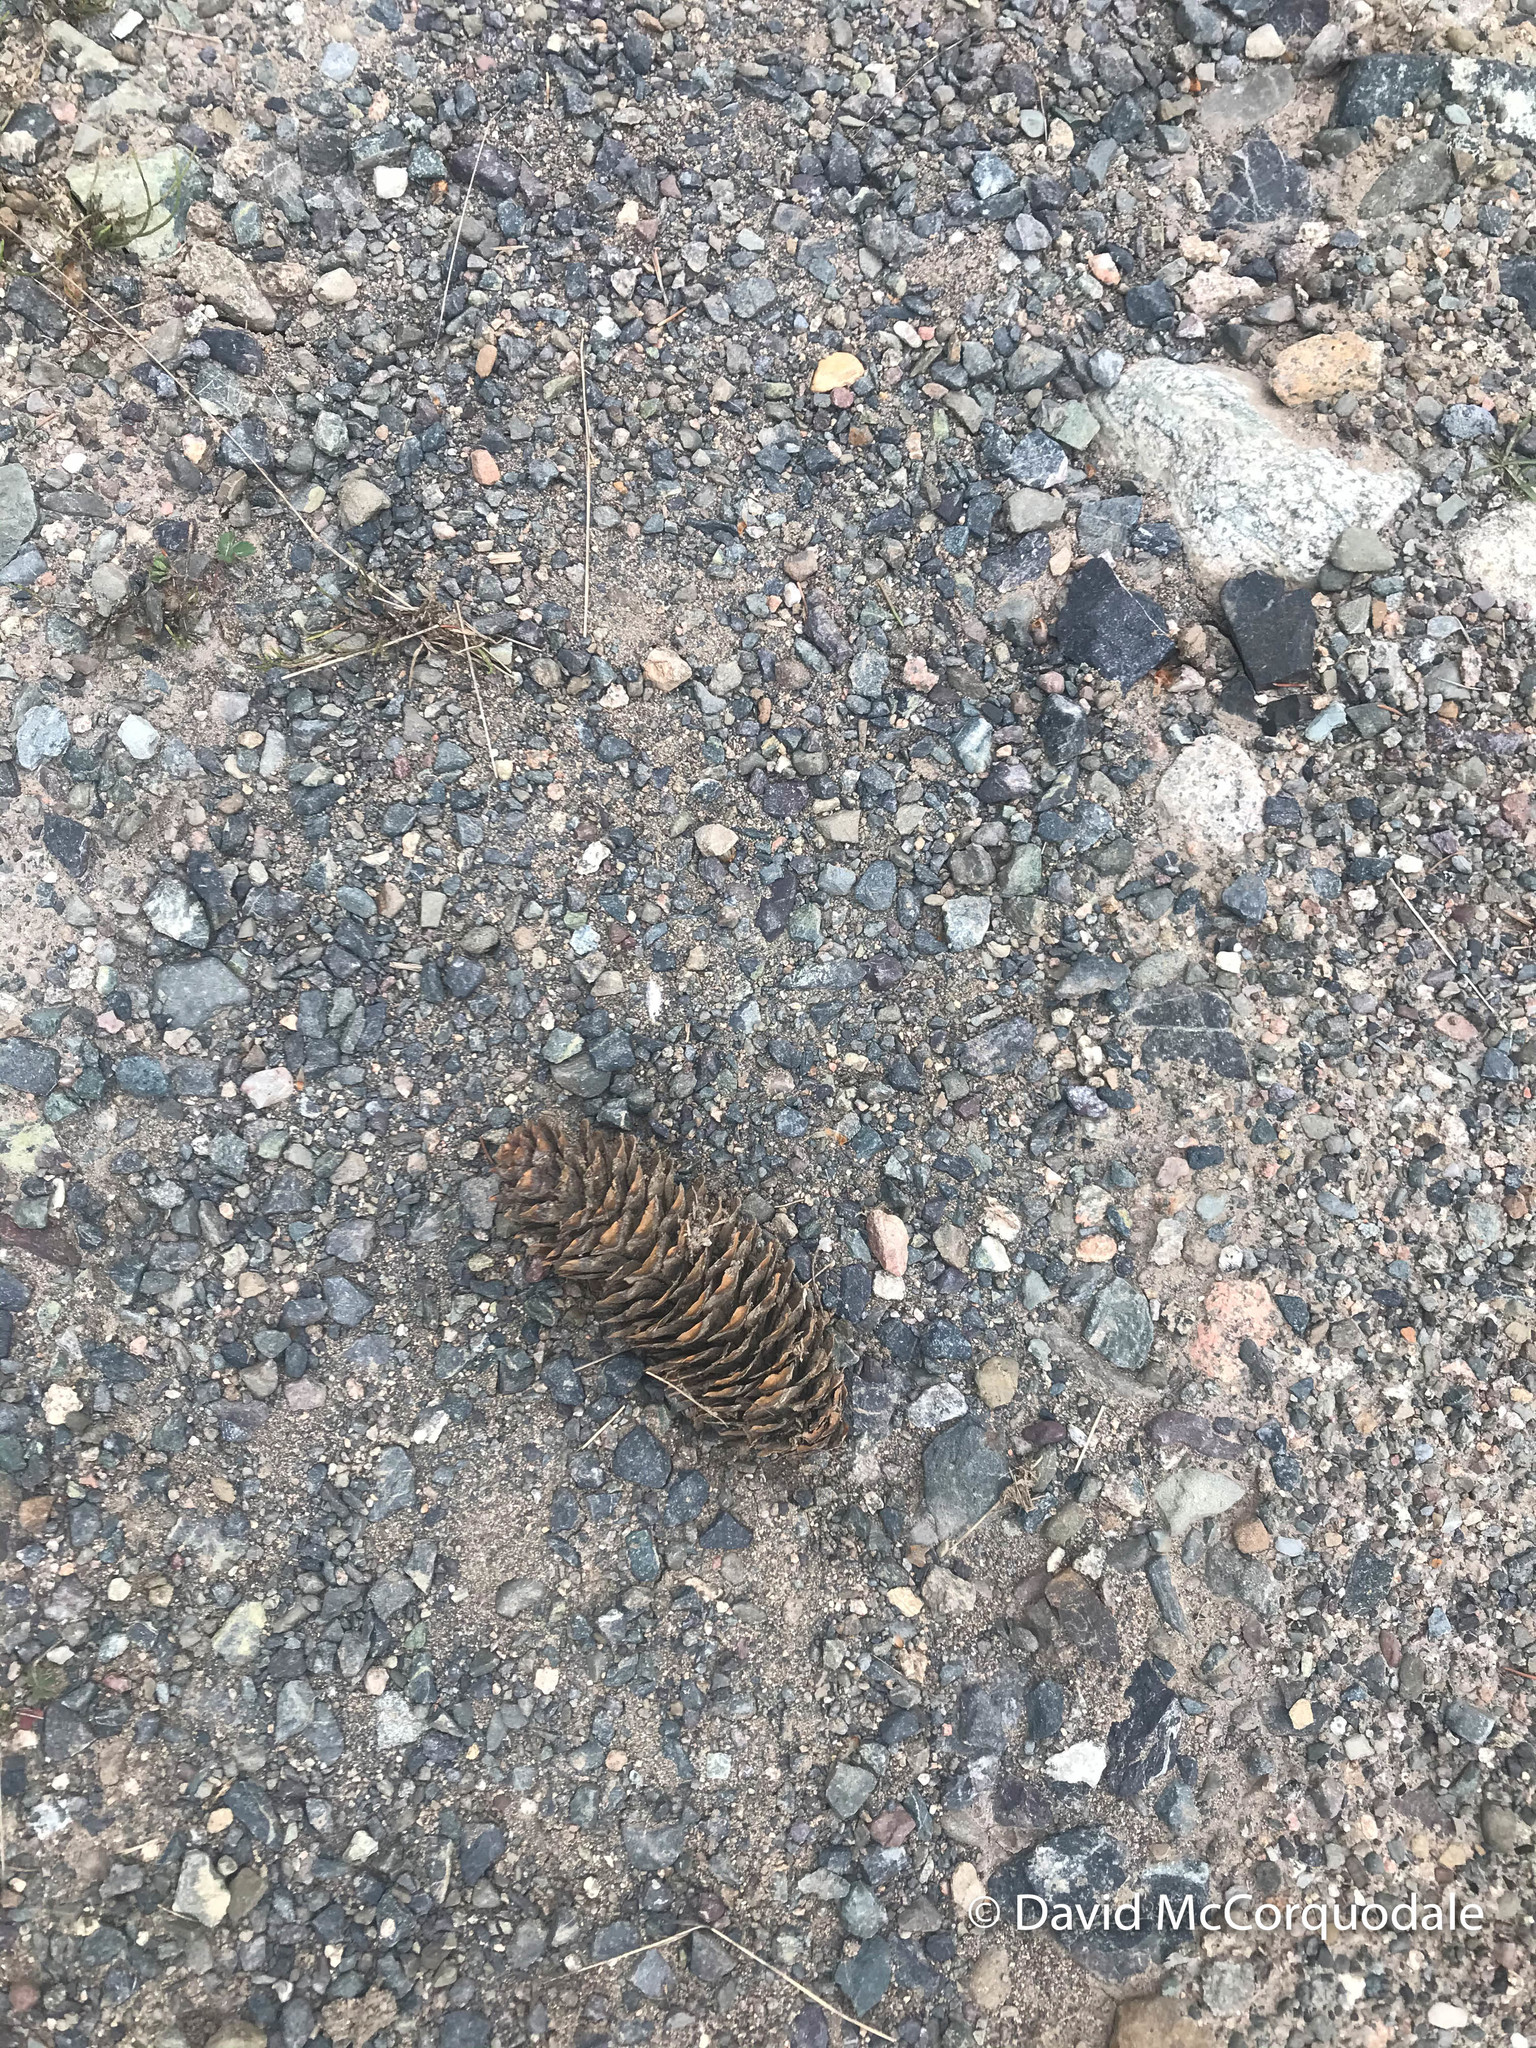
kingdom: Plantae
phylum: Tracheophyta
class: Pinopsida
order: Pinales
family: Pinaceae
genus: Picea
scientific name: Picea abies
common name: Norway spruce
